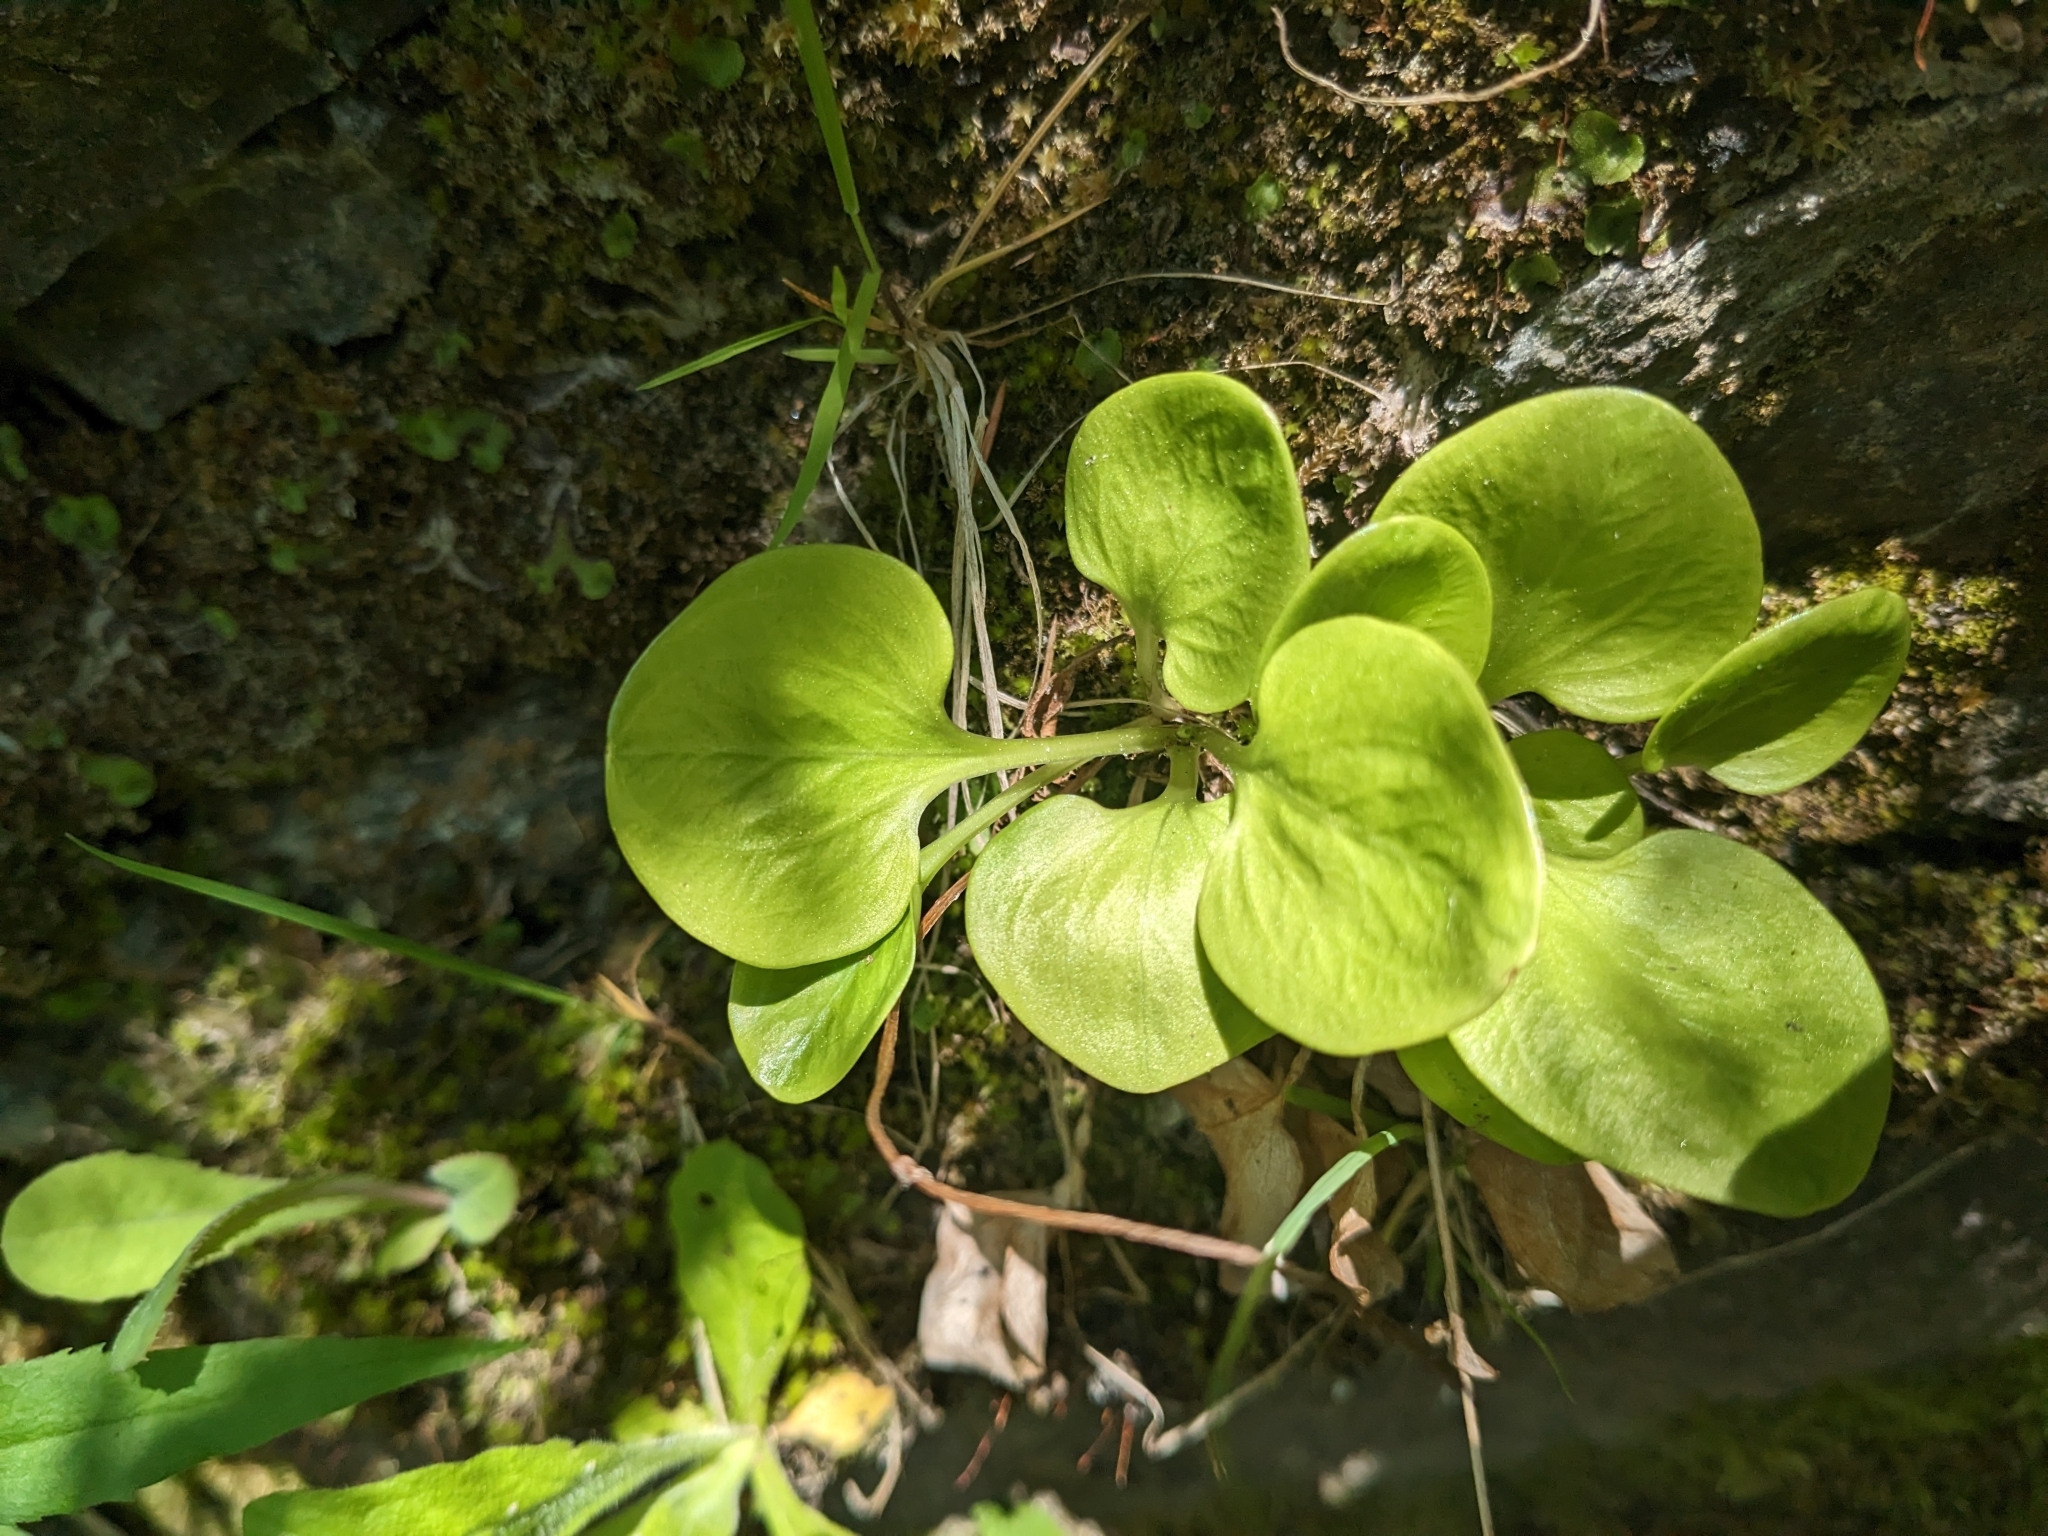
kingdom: Plantae
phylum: Tracheophyta
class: Magnoliopsida
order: Celastrales
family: Parnassiaceae
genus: Parnassia
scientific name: Parnassia glauca
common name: American grass-of-parnassus
